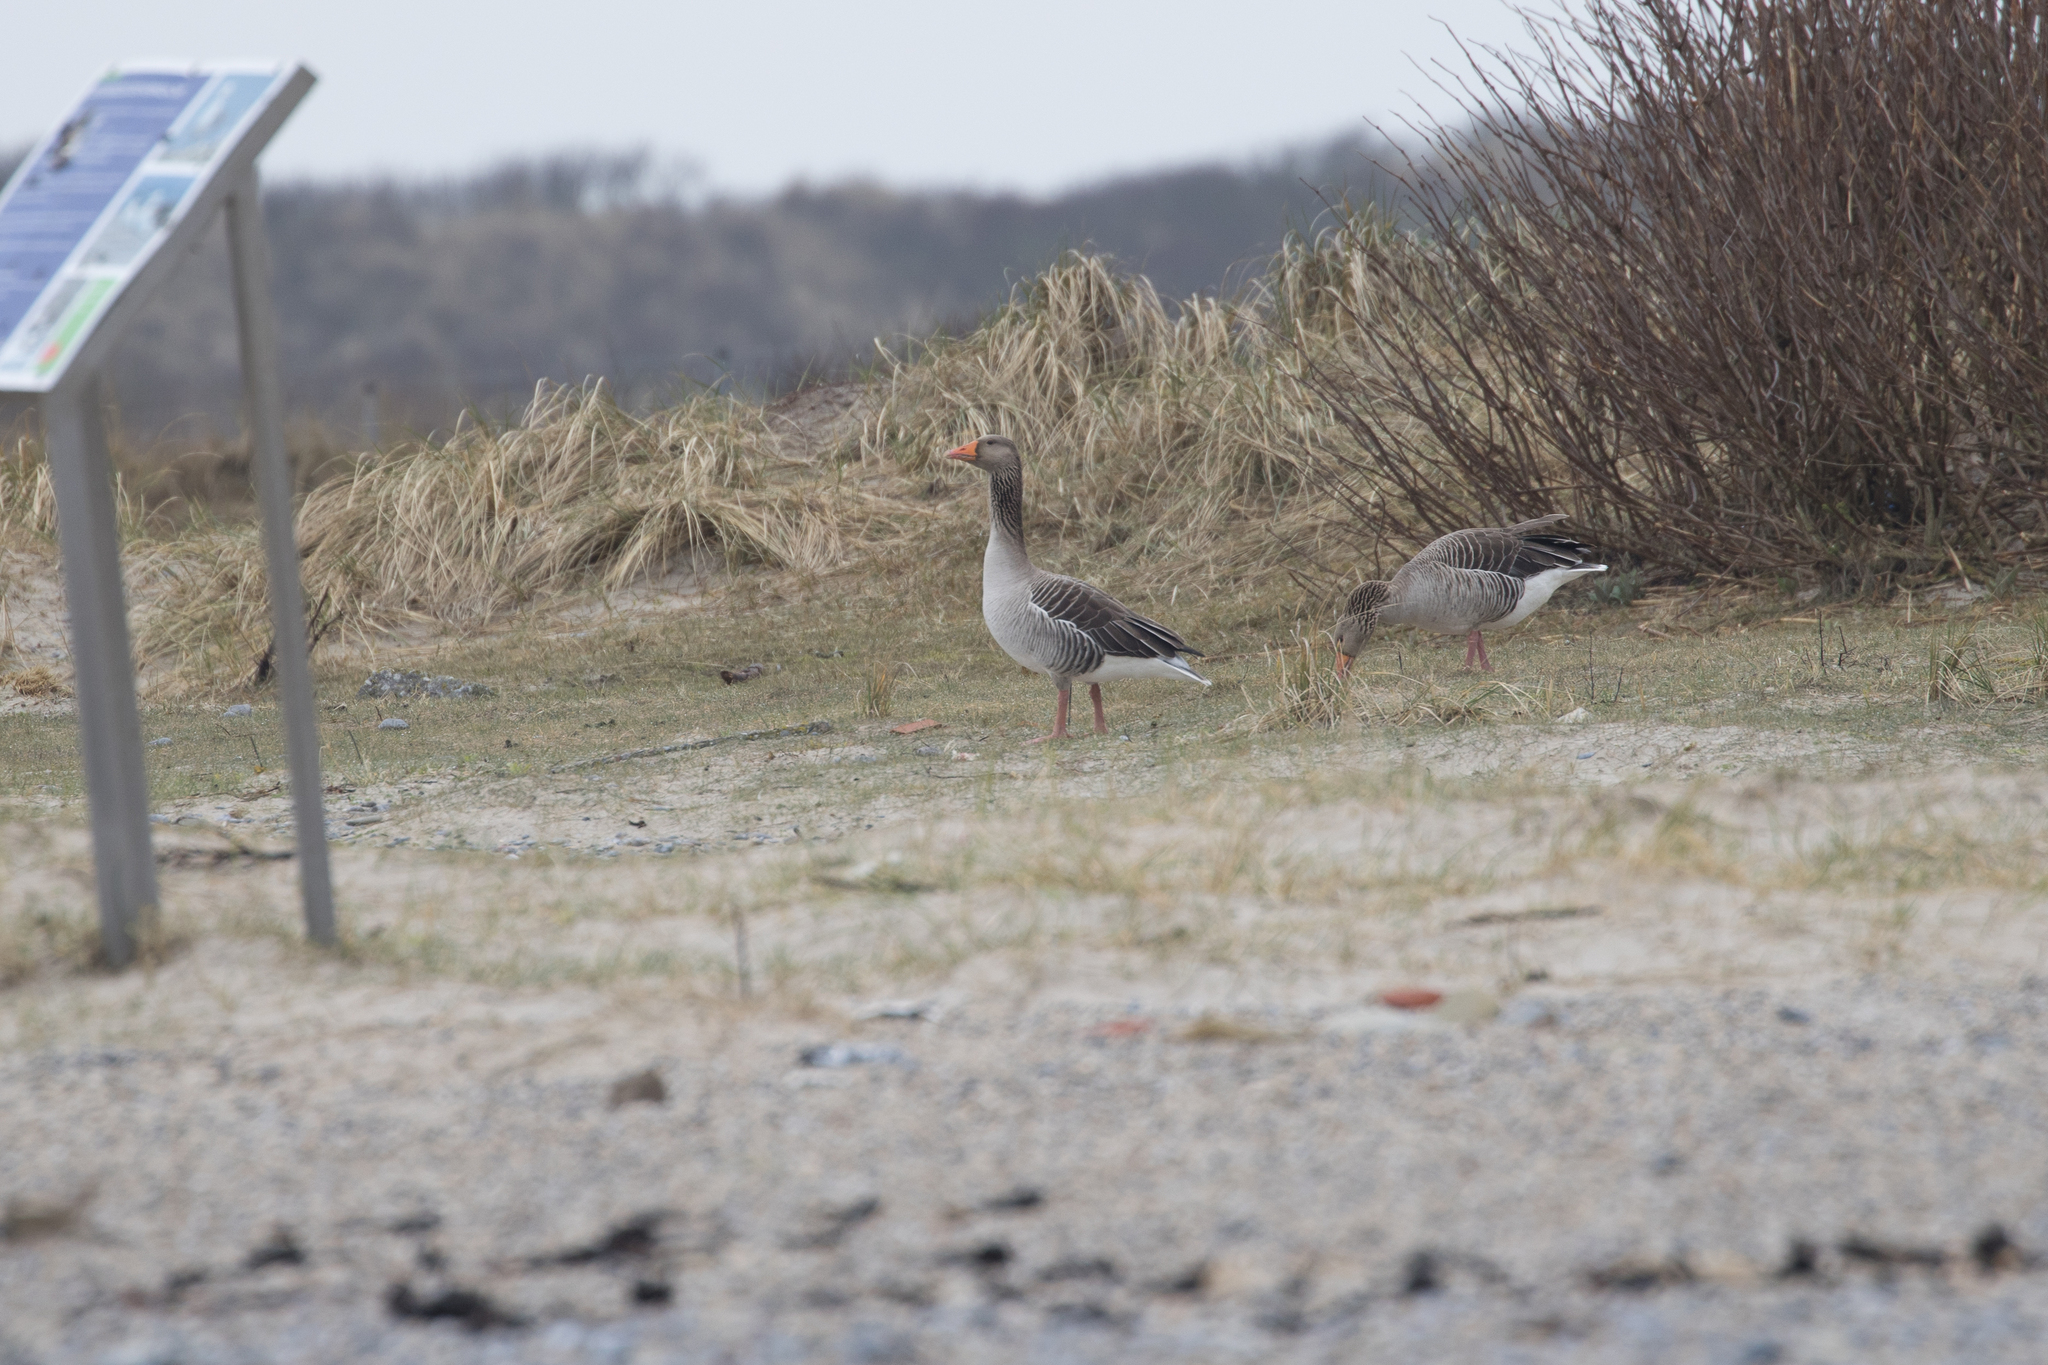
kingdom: Animalia
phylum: Chordata
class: Aves
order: Anseriformes
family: Anatidae
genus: Anser
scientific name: Anser anser
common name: Greylag goose
